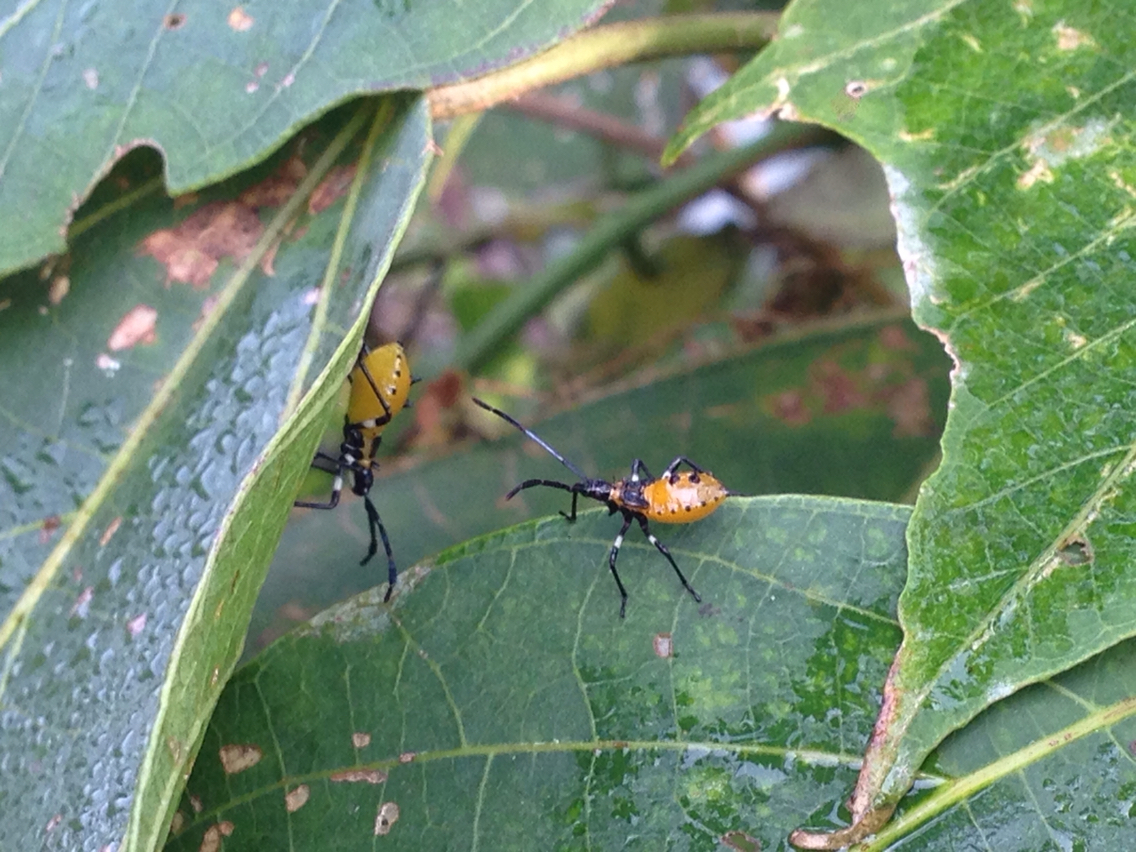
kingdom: Animalia
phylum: Arthropoda
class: Insecta
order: Hemiptera
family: Coreidae
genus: Plinachtus
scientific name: Plinachtus bicoloripes
